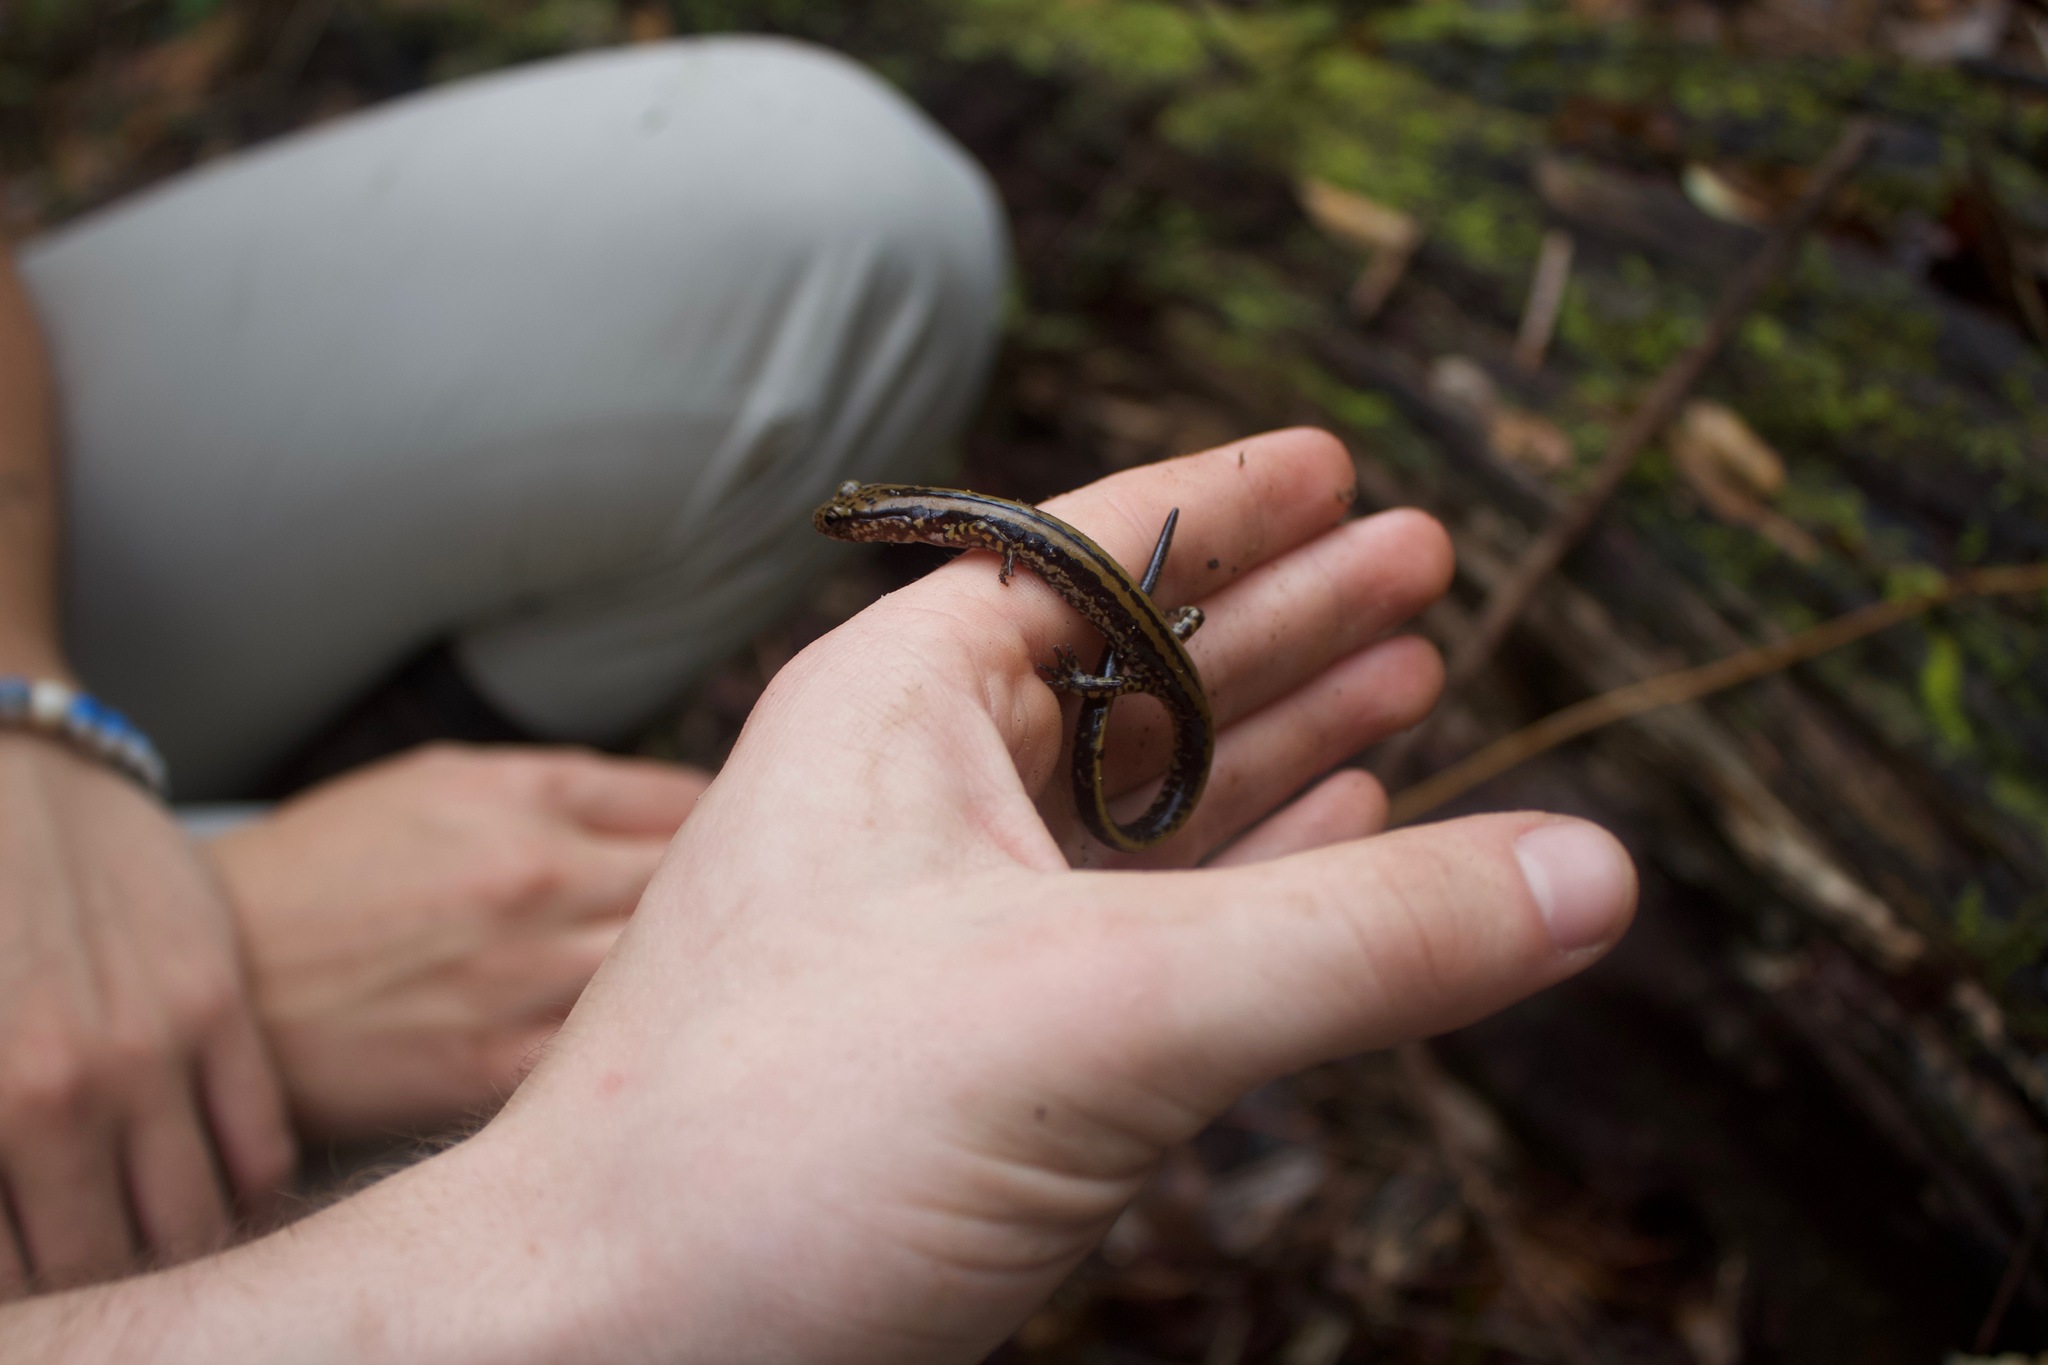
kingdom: Animalia
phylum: Chordata
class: Amphibia
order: Caudata
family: Plethodontidae
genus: Eurycea
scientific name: Eurycea guttolineata
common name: Three-lined salamander
